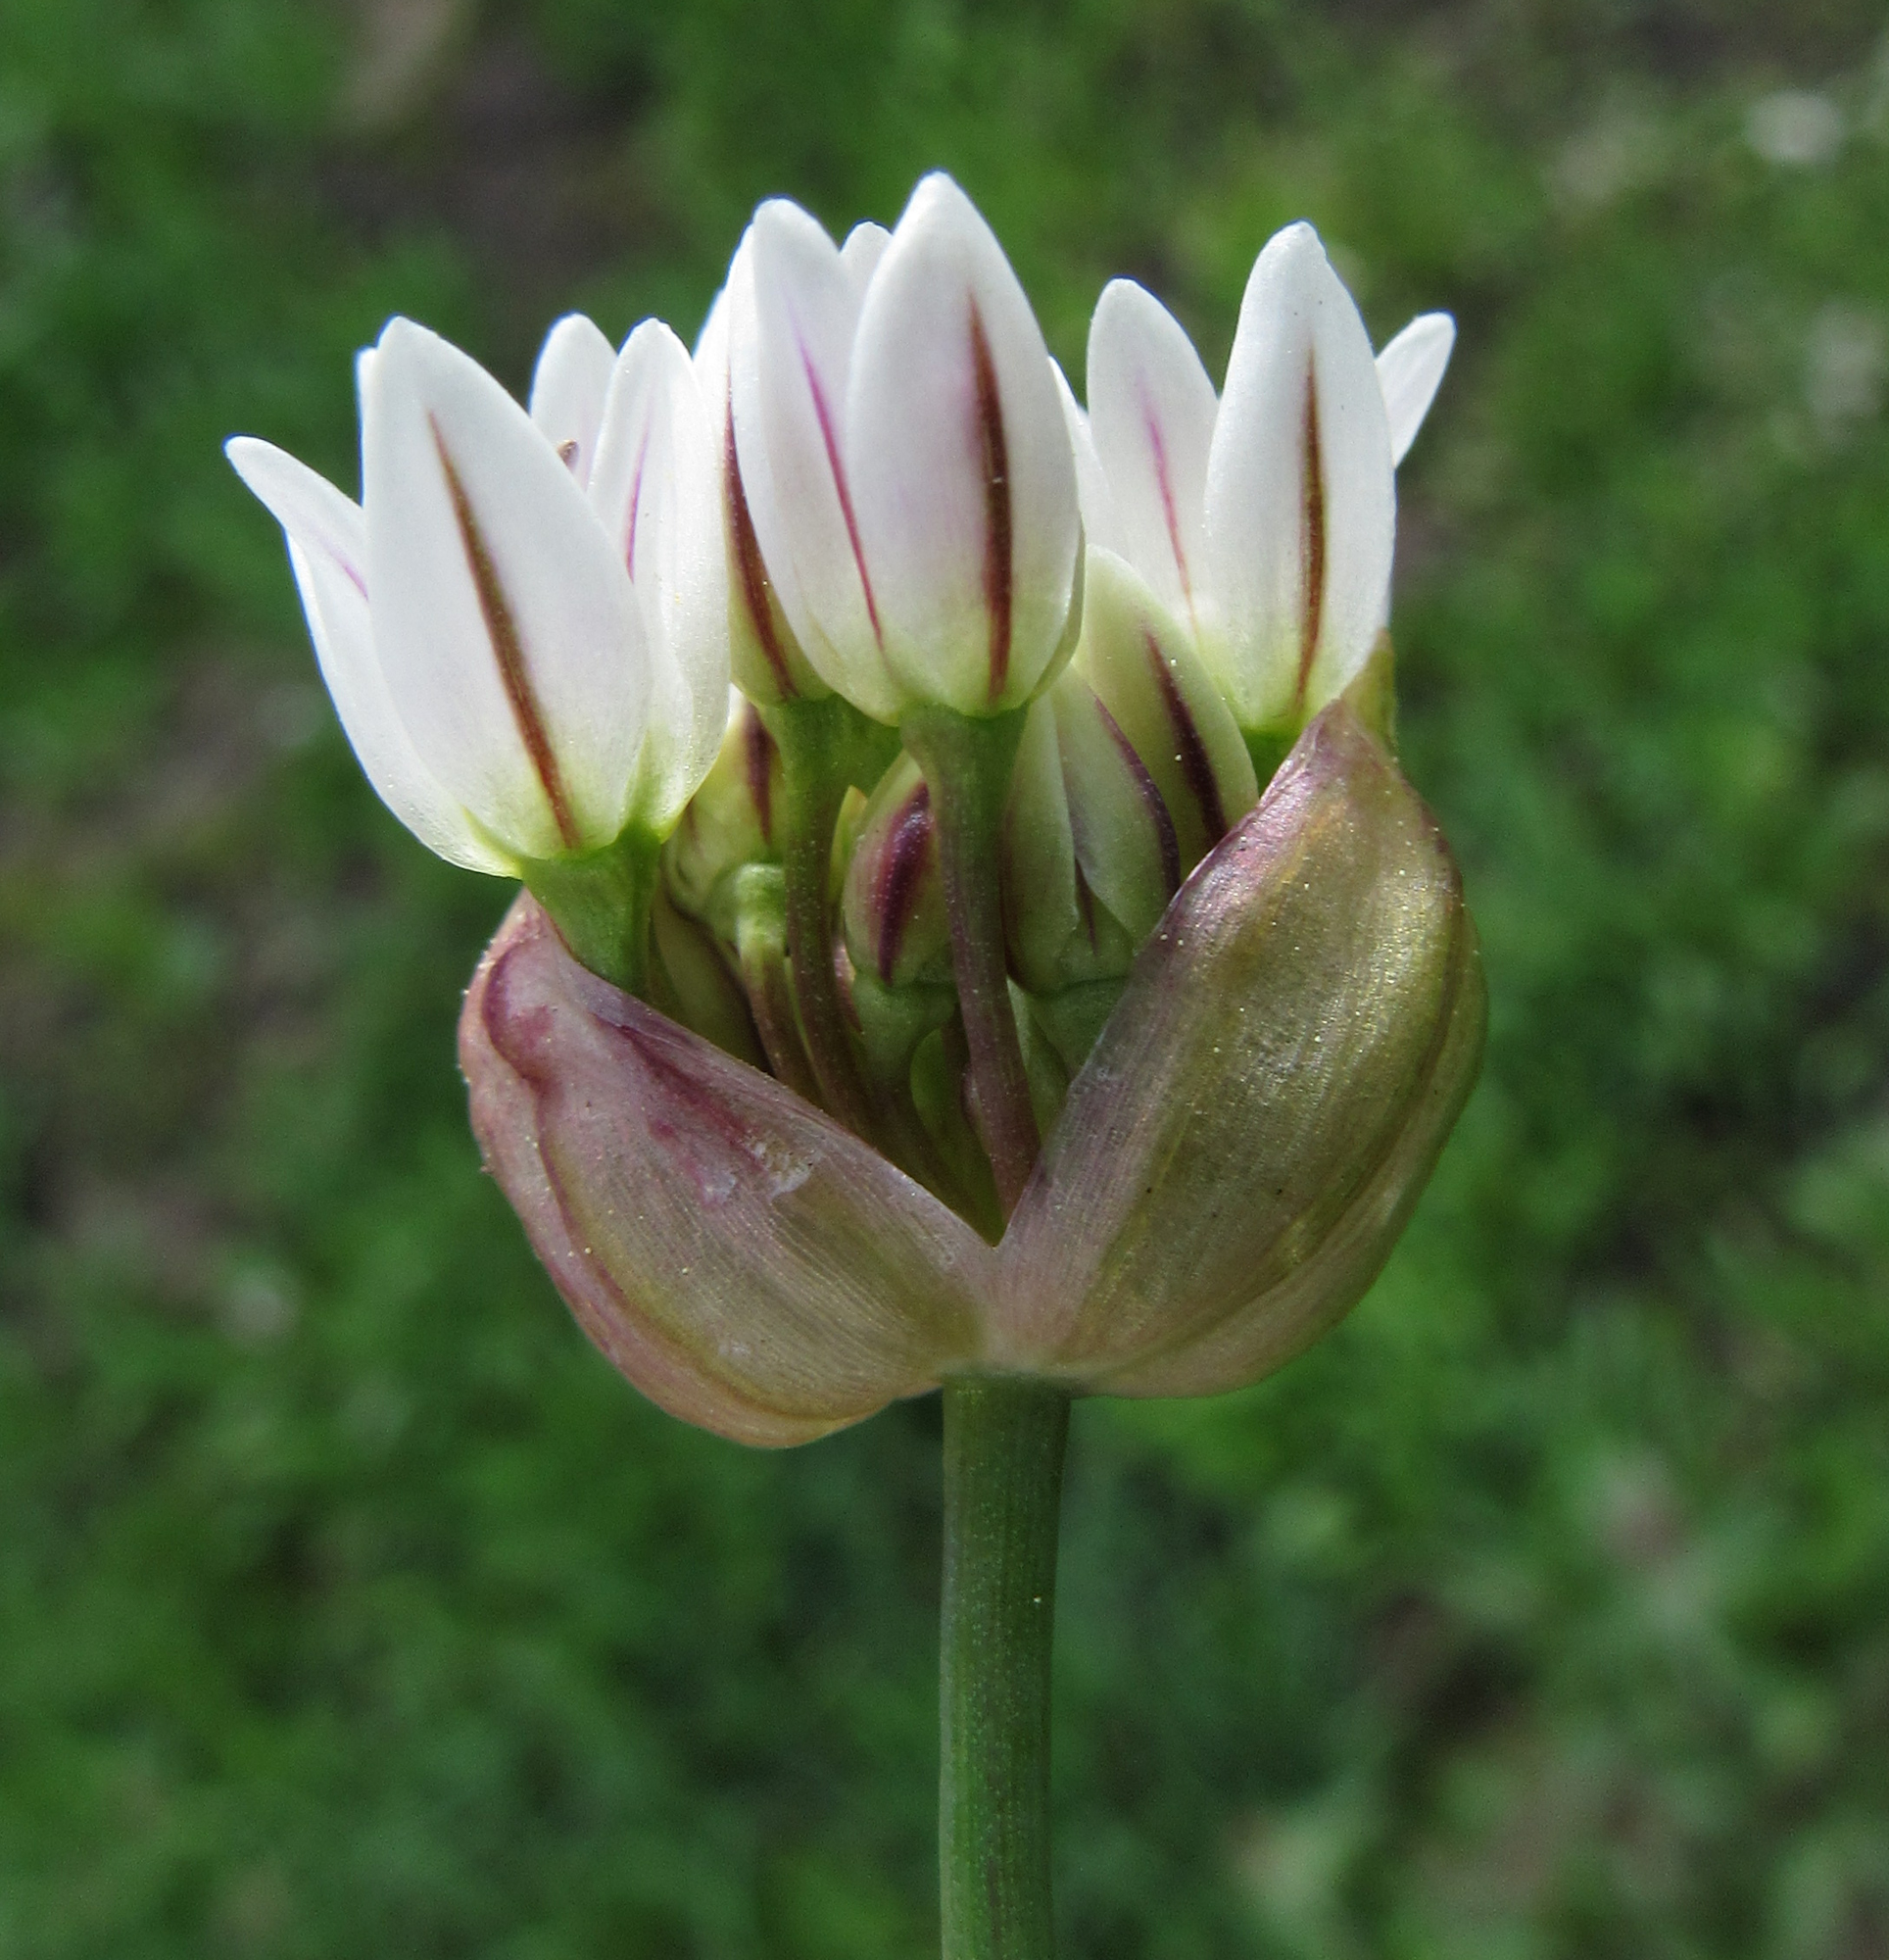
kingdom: Plantae
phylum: Tracheophyta
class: Liliopsida
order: Asparagales
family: Amaryllidaceae
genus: Allium
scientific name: Allium brandegeei
